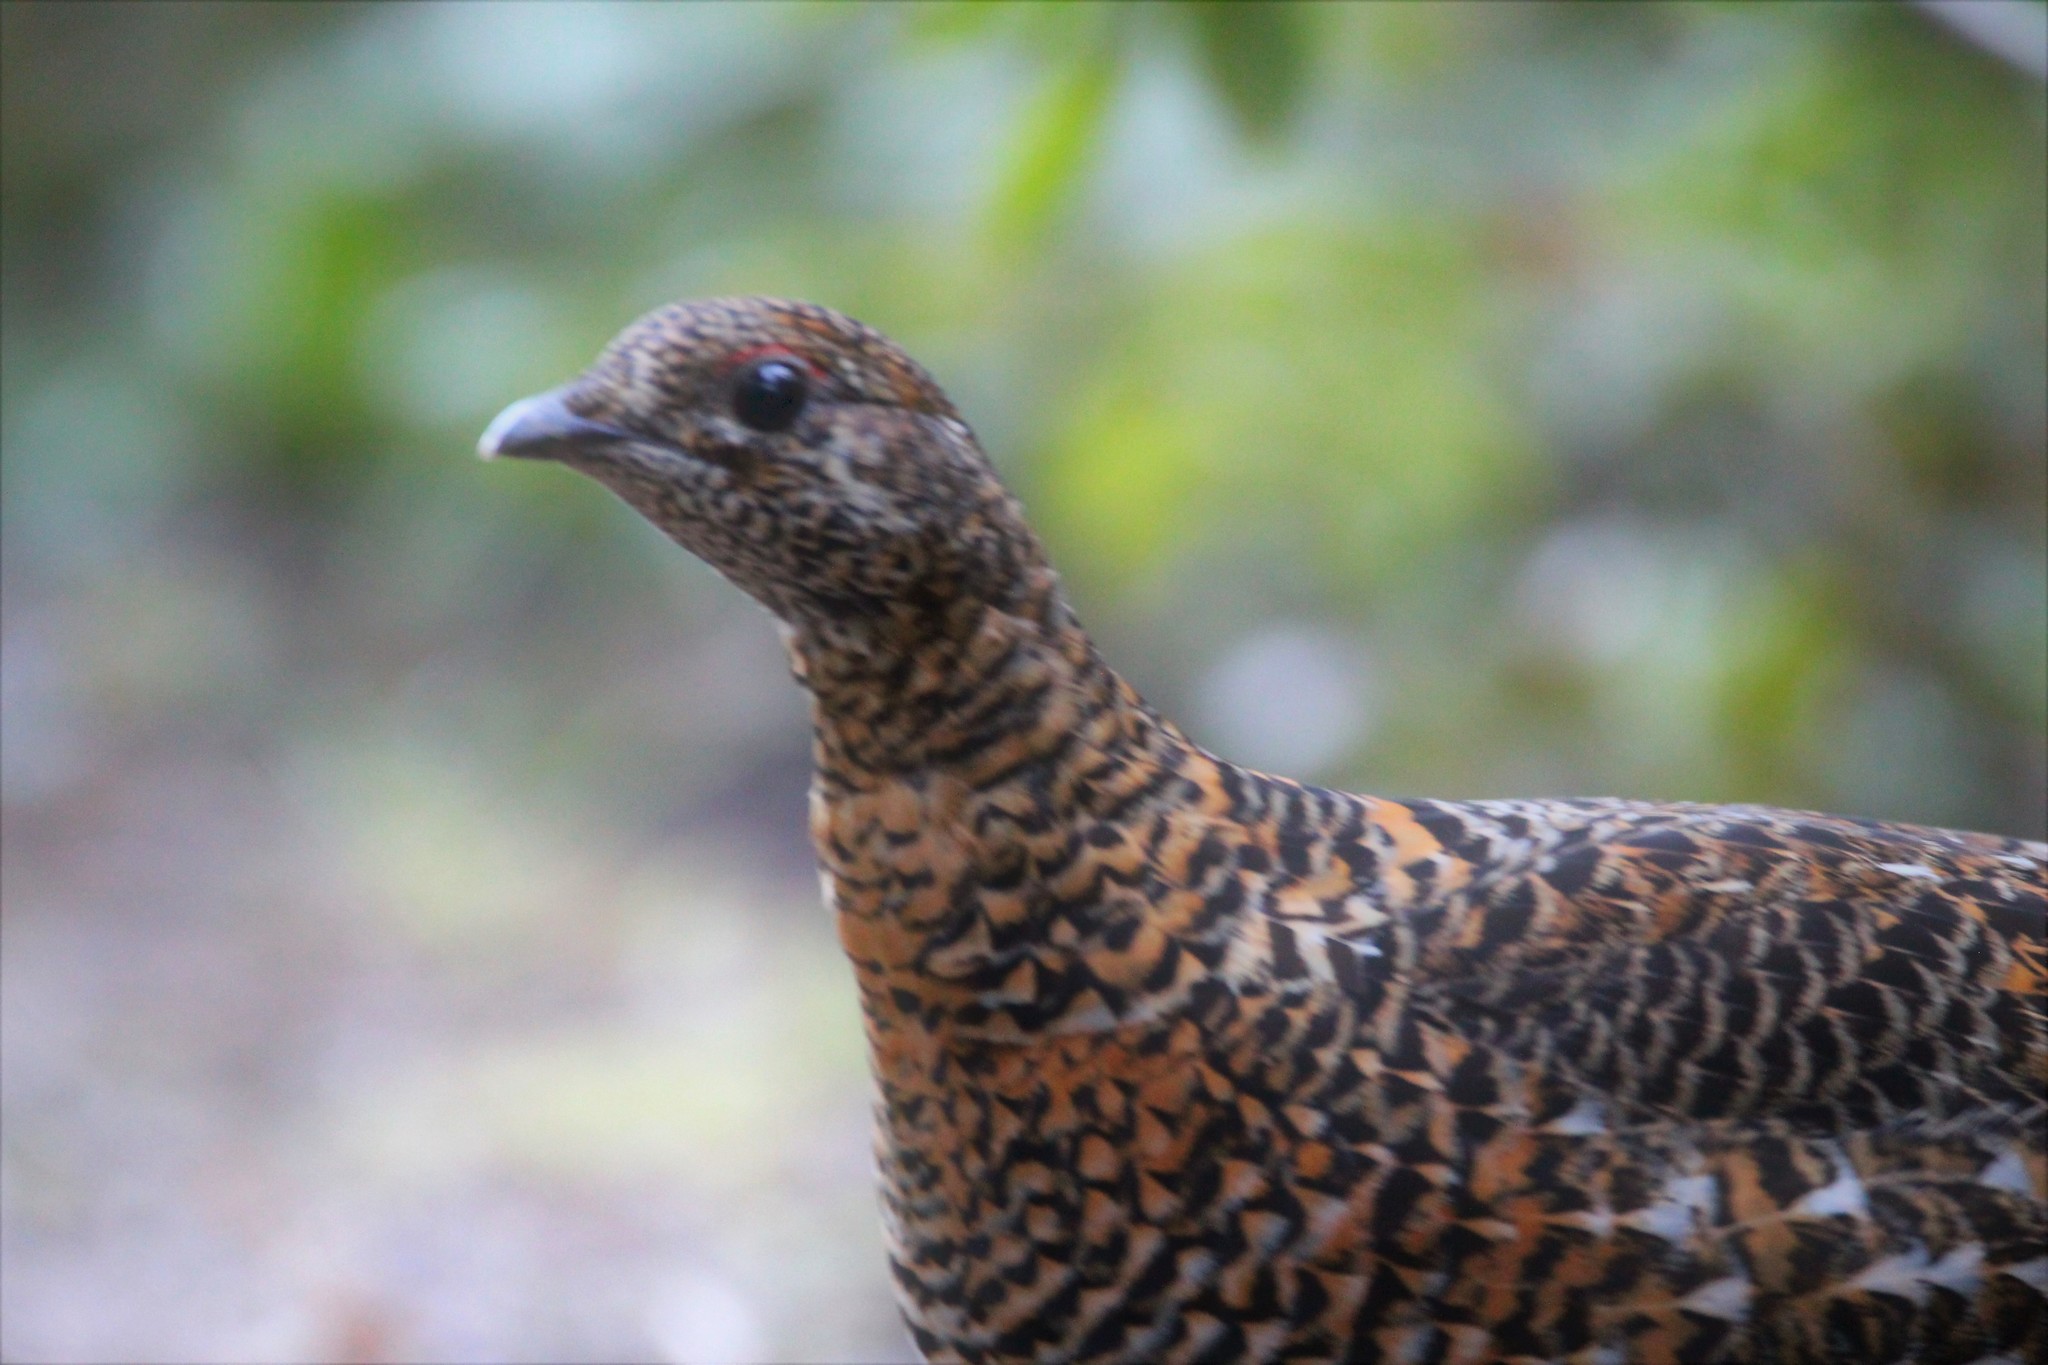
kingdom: Animalia
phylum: Chordata
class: Aves
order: Galliformes
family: Phasianidae
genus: Canachites
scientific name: Canachites canadensis
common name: Spruce grouse
